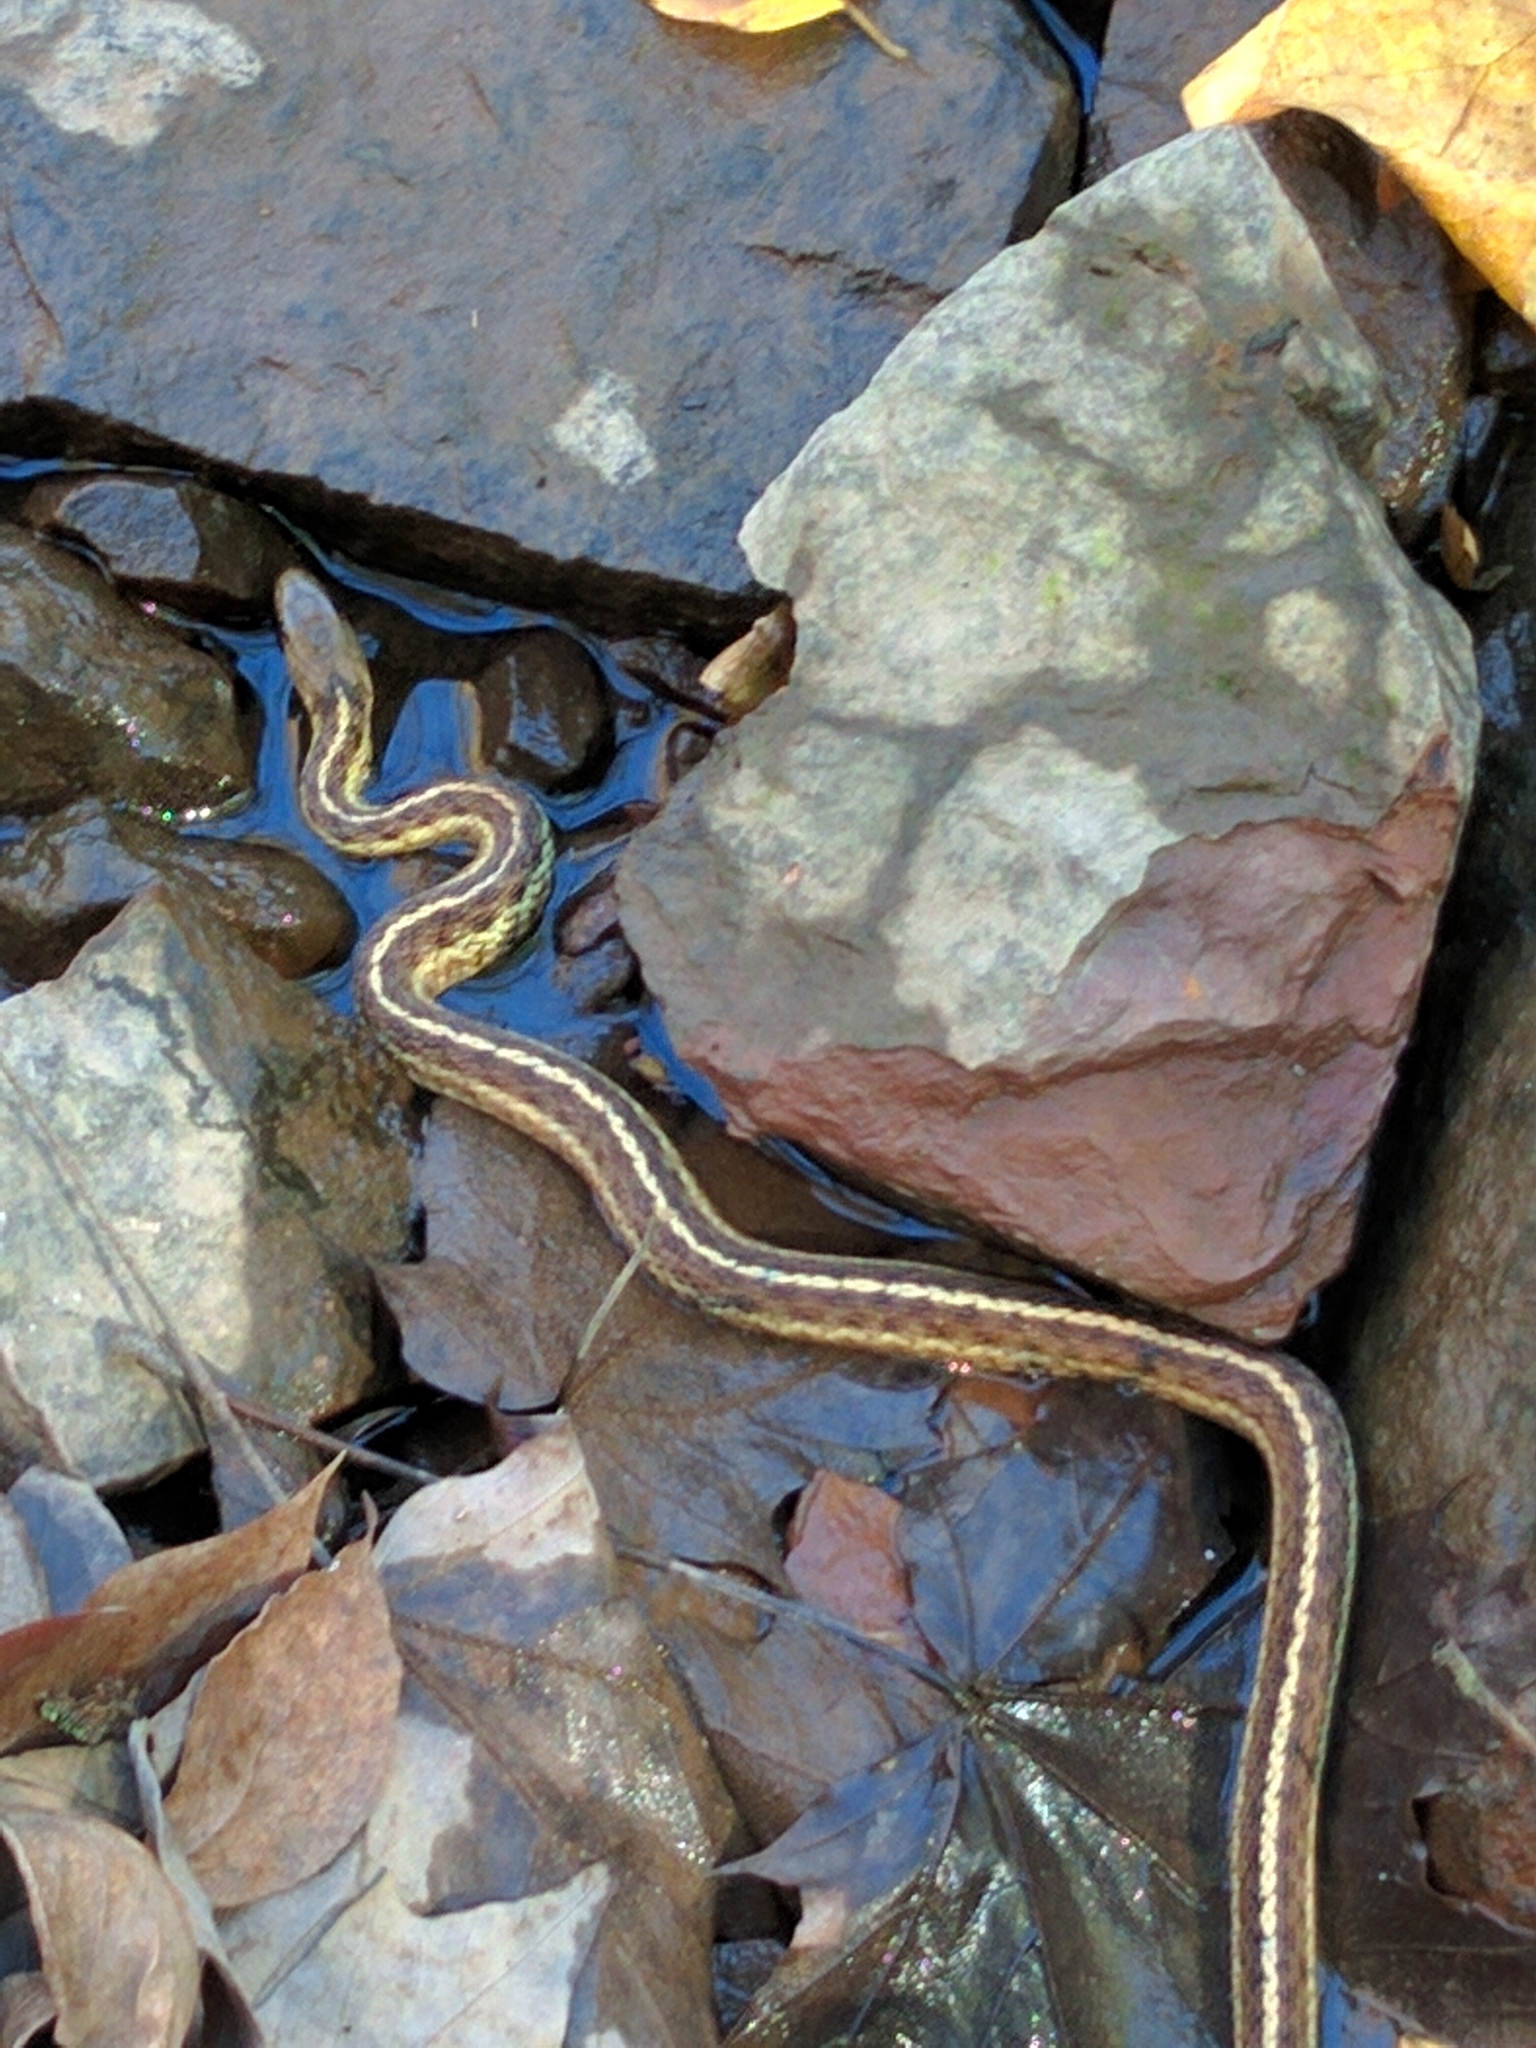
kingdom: Animalia
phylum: Chordata
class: Squamata
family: Colubridae
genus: Thamnophis
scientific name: Thamnophis sirtalis
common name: Common garter snake
